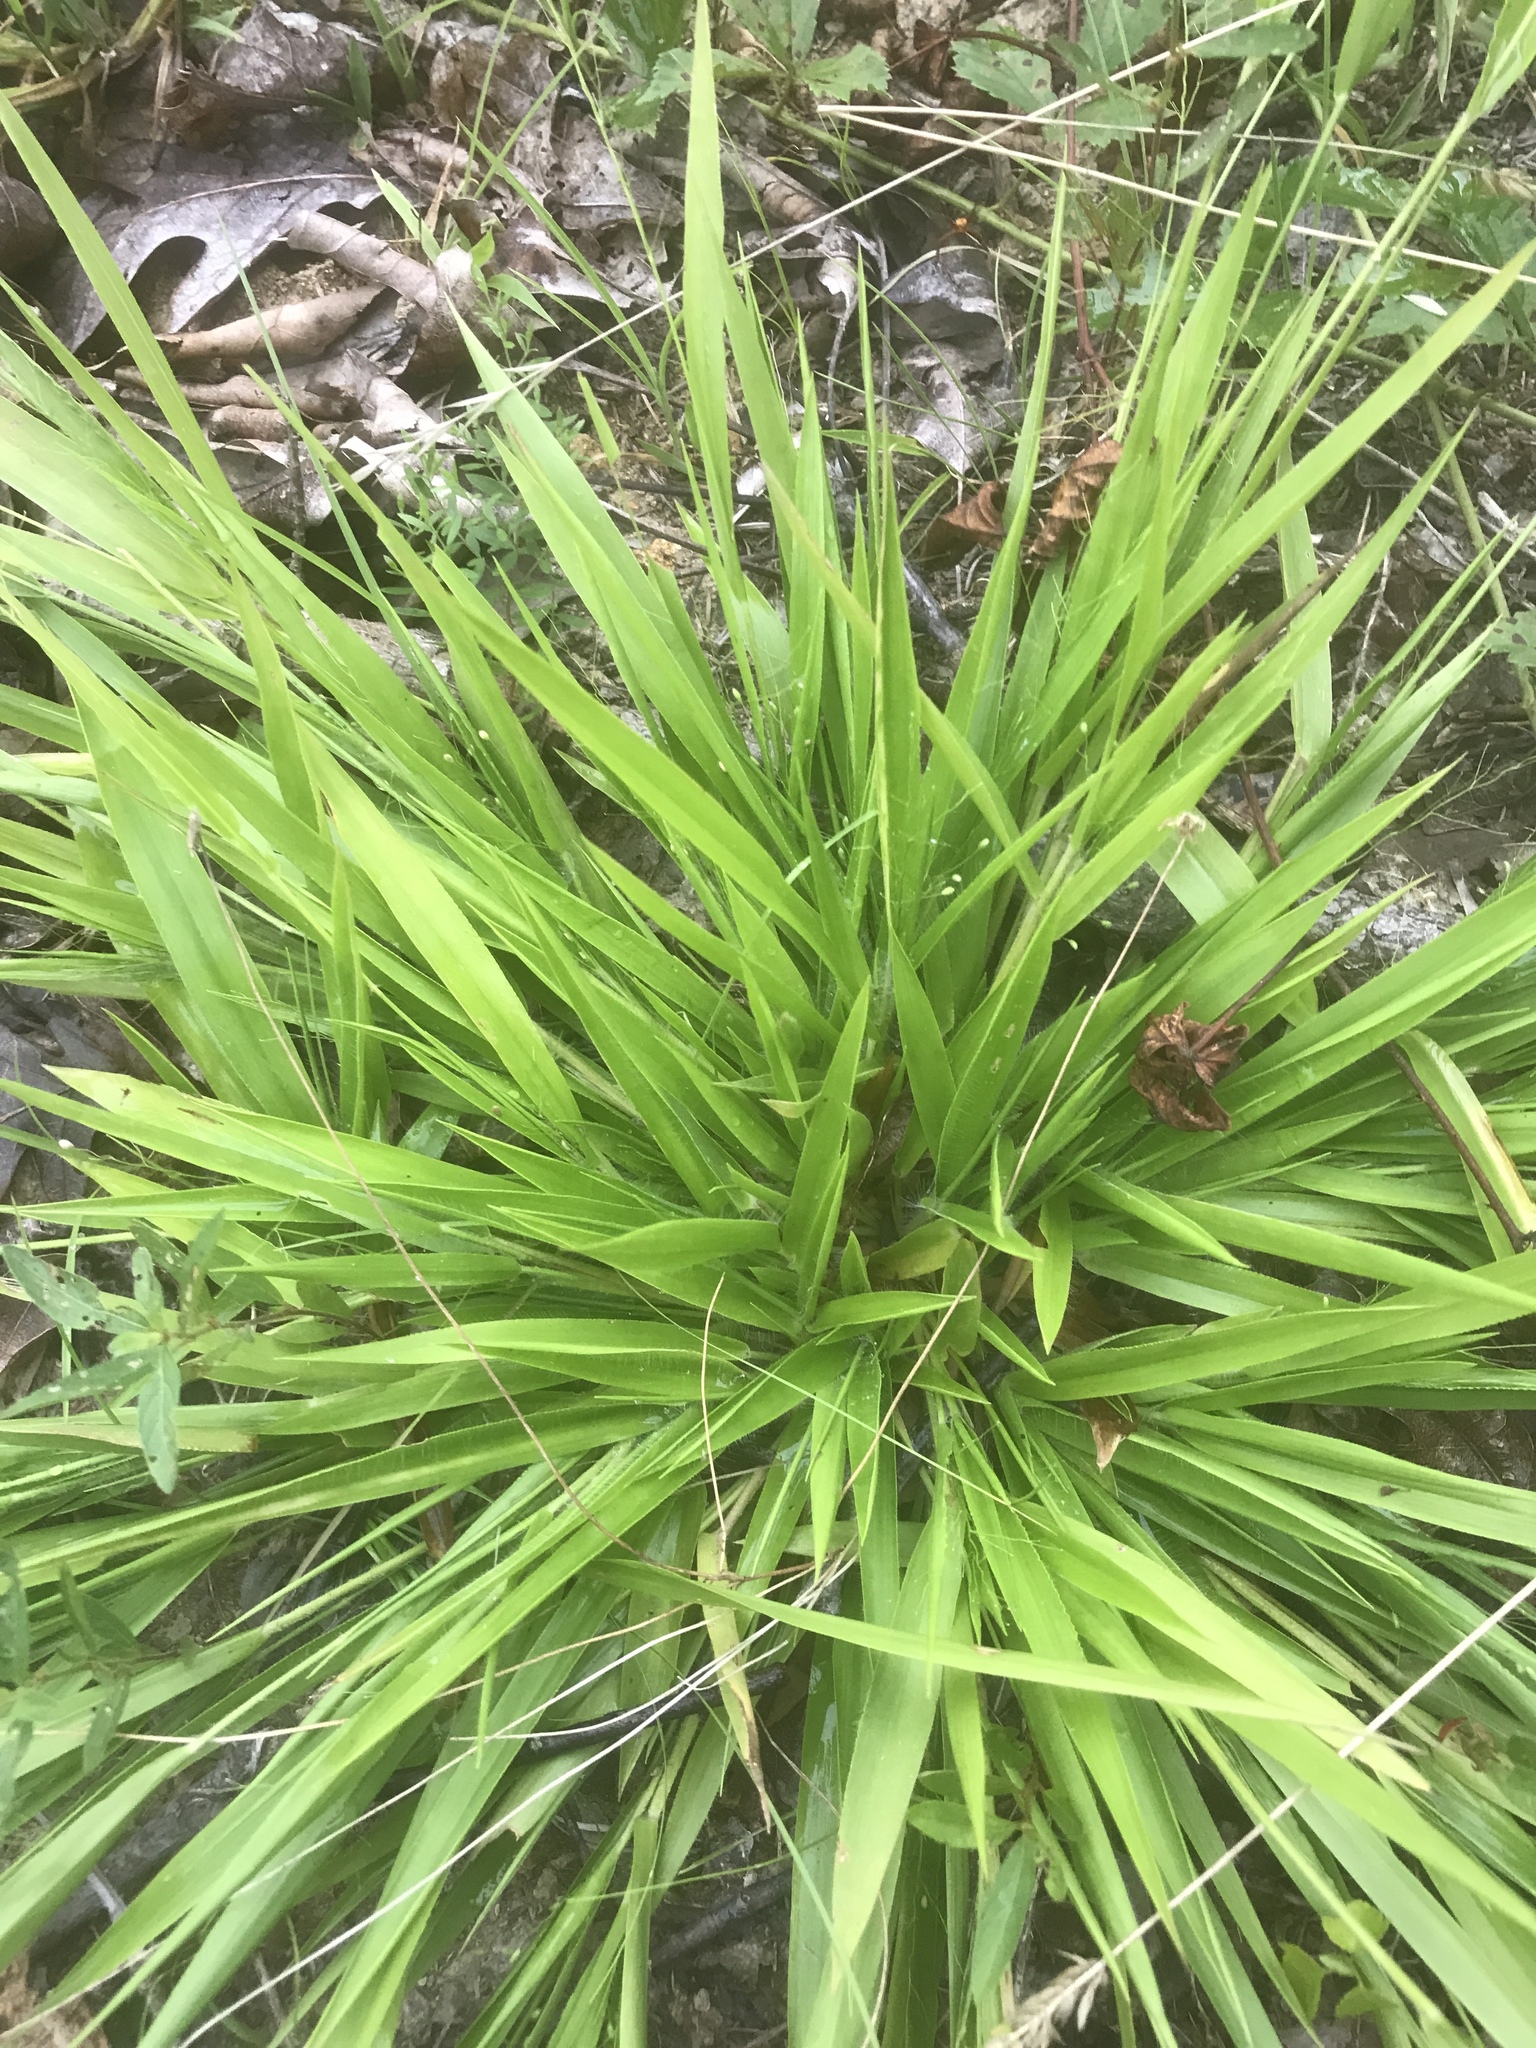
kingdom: Plantae
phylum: Tracheophyta
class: Liliopsida
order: Poales
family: Poaceae
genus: Dichanthelium
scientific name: Dichanthelium laxiflorum
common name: Soft-tuft panic grass
